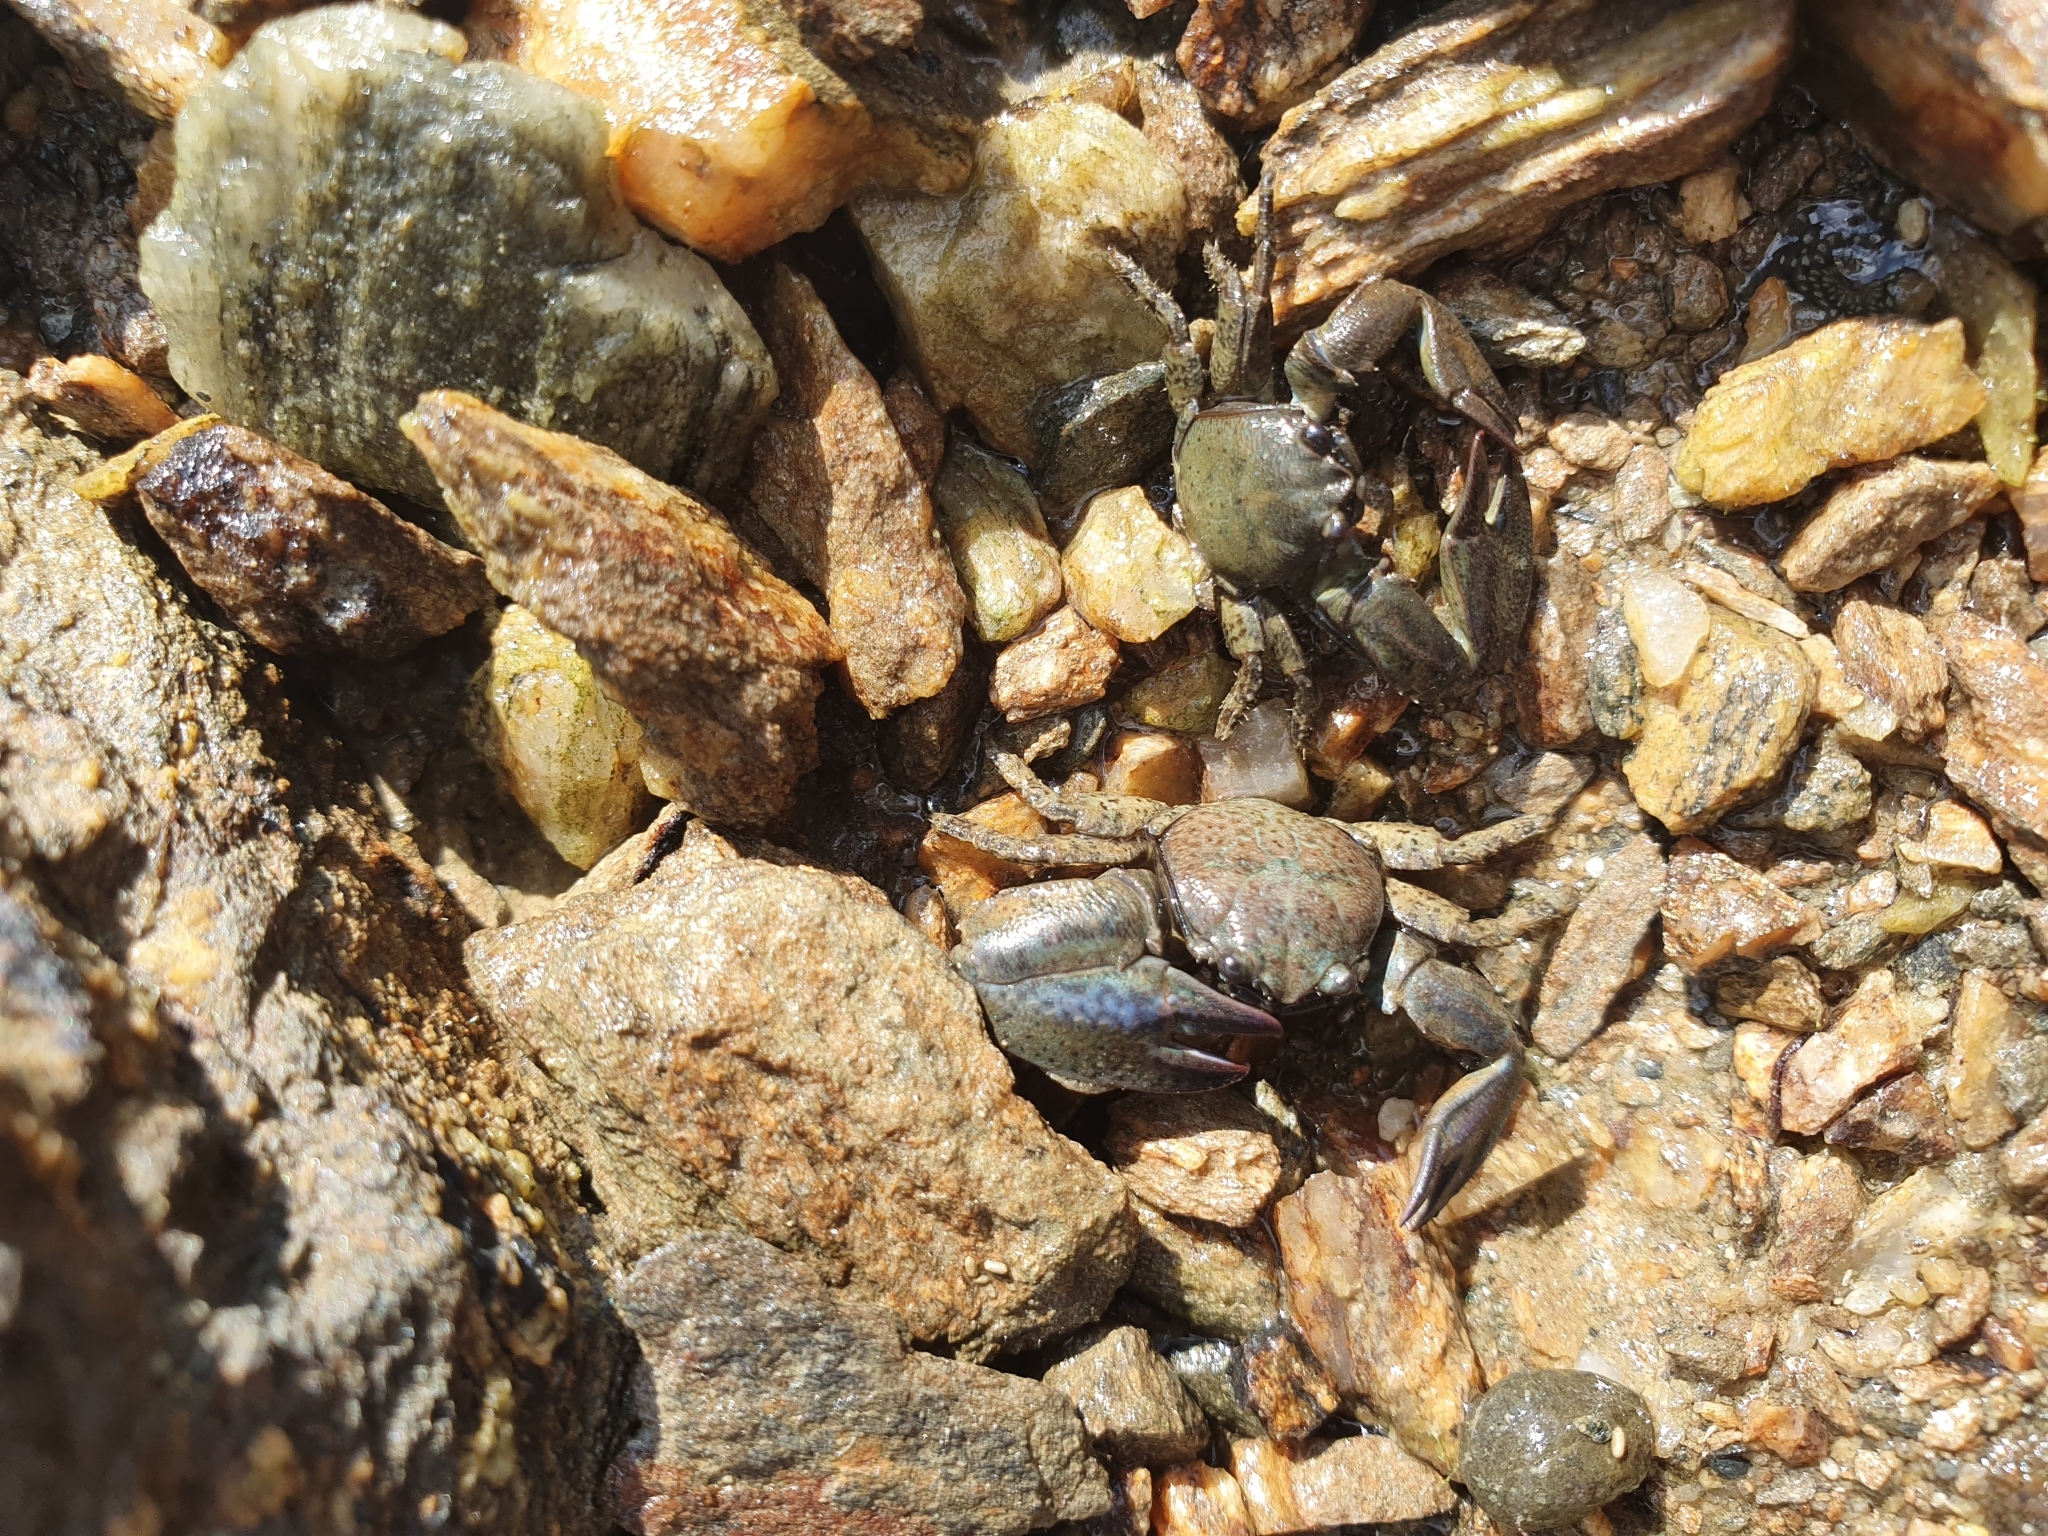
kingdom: Animalia
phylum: Arthropoda
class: Malacostraca
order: Decapoda
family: Porcellanidae
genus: Petrolisthes
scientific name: Petrolisthes elongatus
